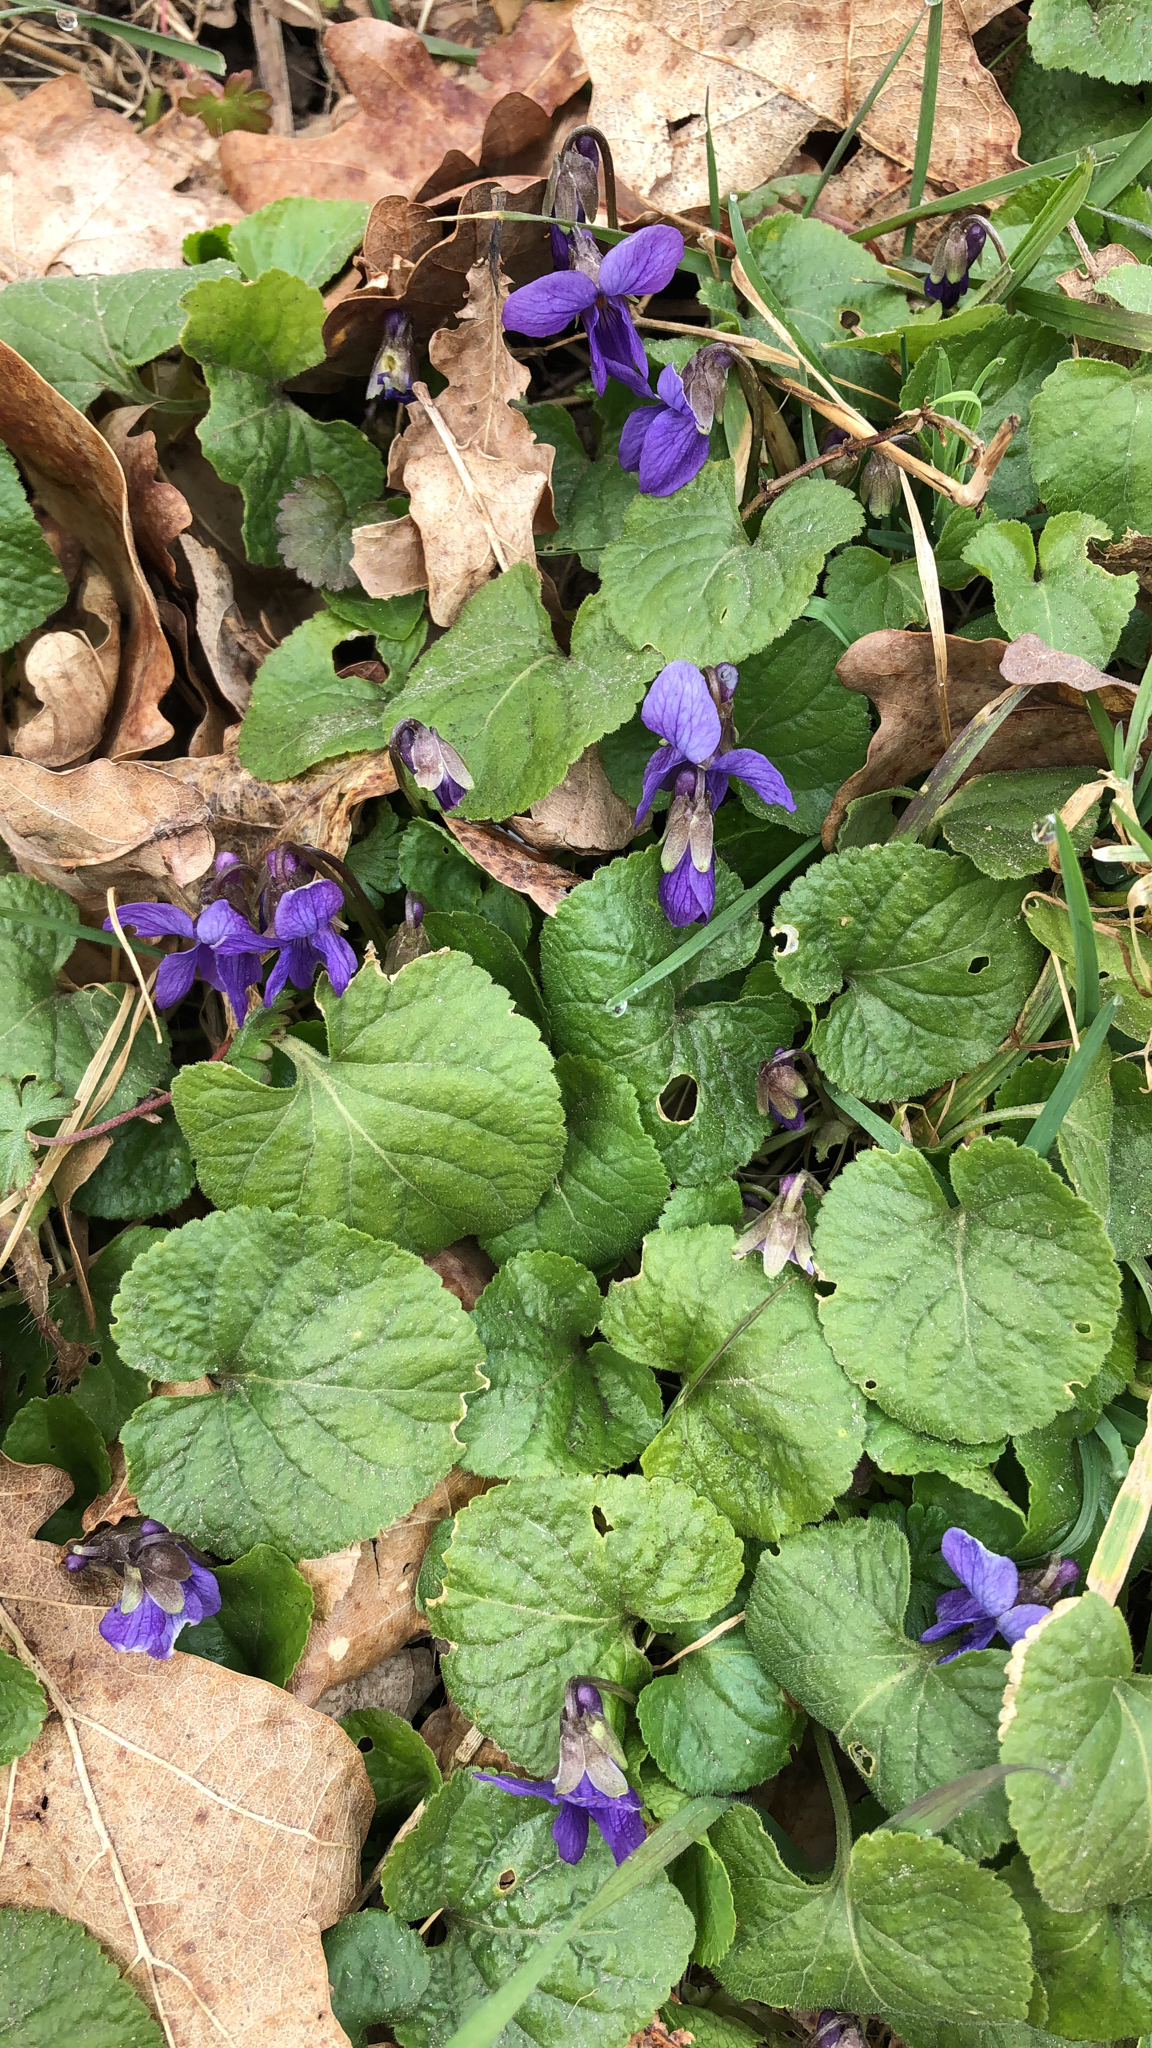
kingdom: Plantae
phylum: Tracheophyta
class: Magnoliopsida
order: Malpighiales
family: Violaceae
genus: Viola
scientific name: Viola odorata
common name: Sweet violet
